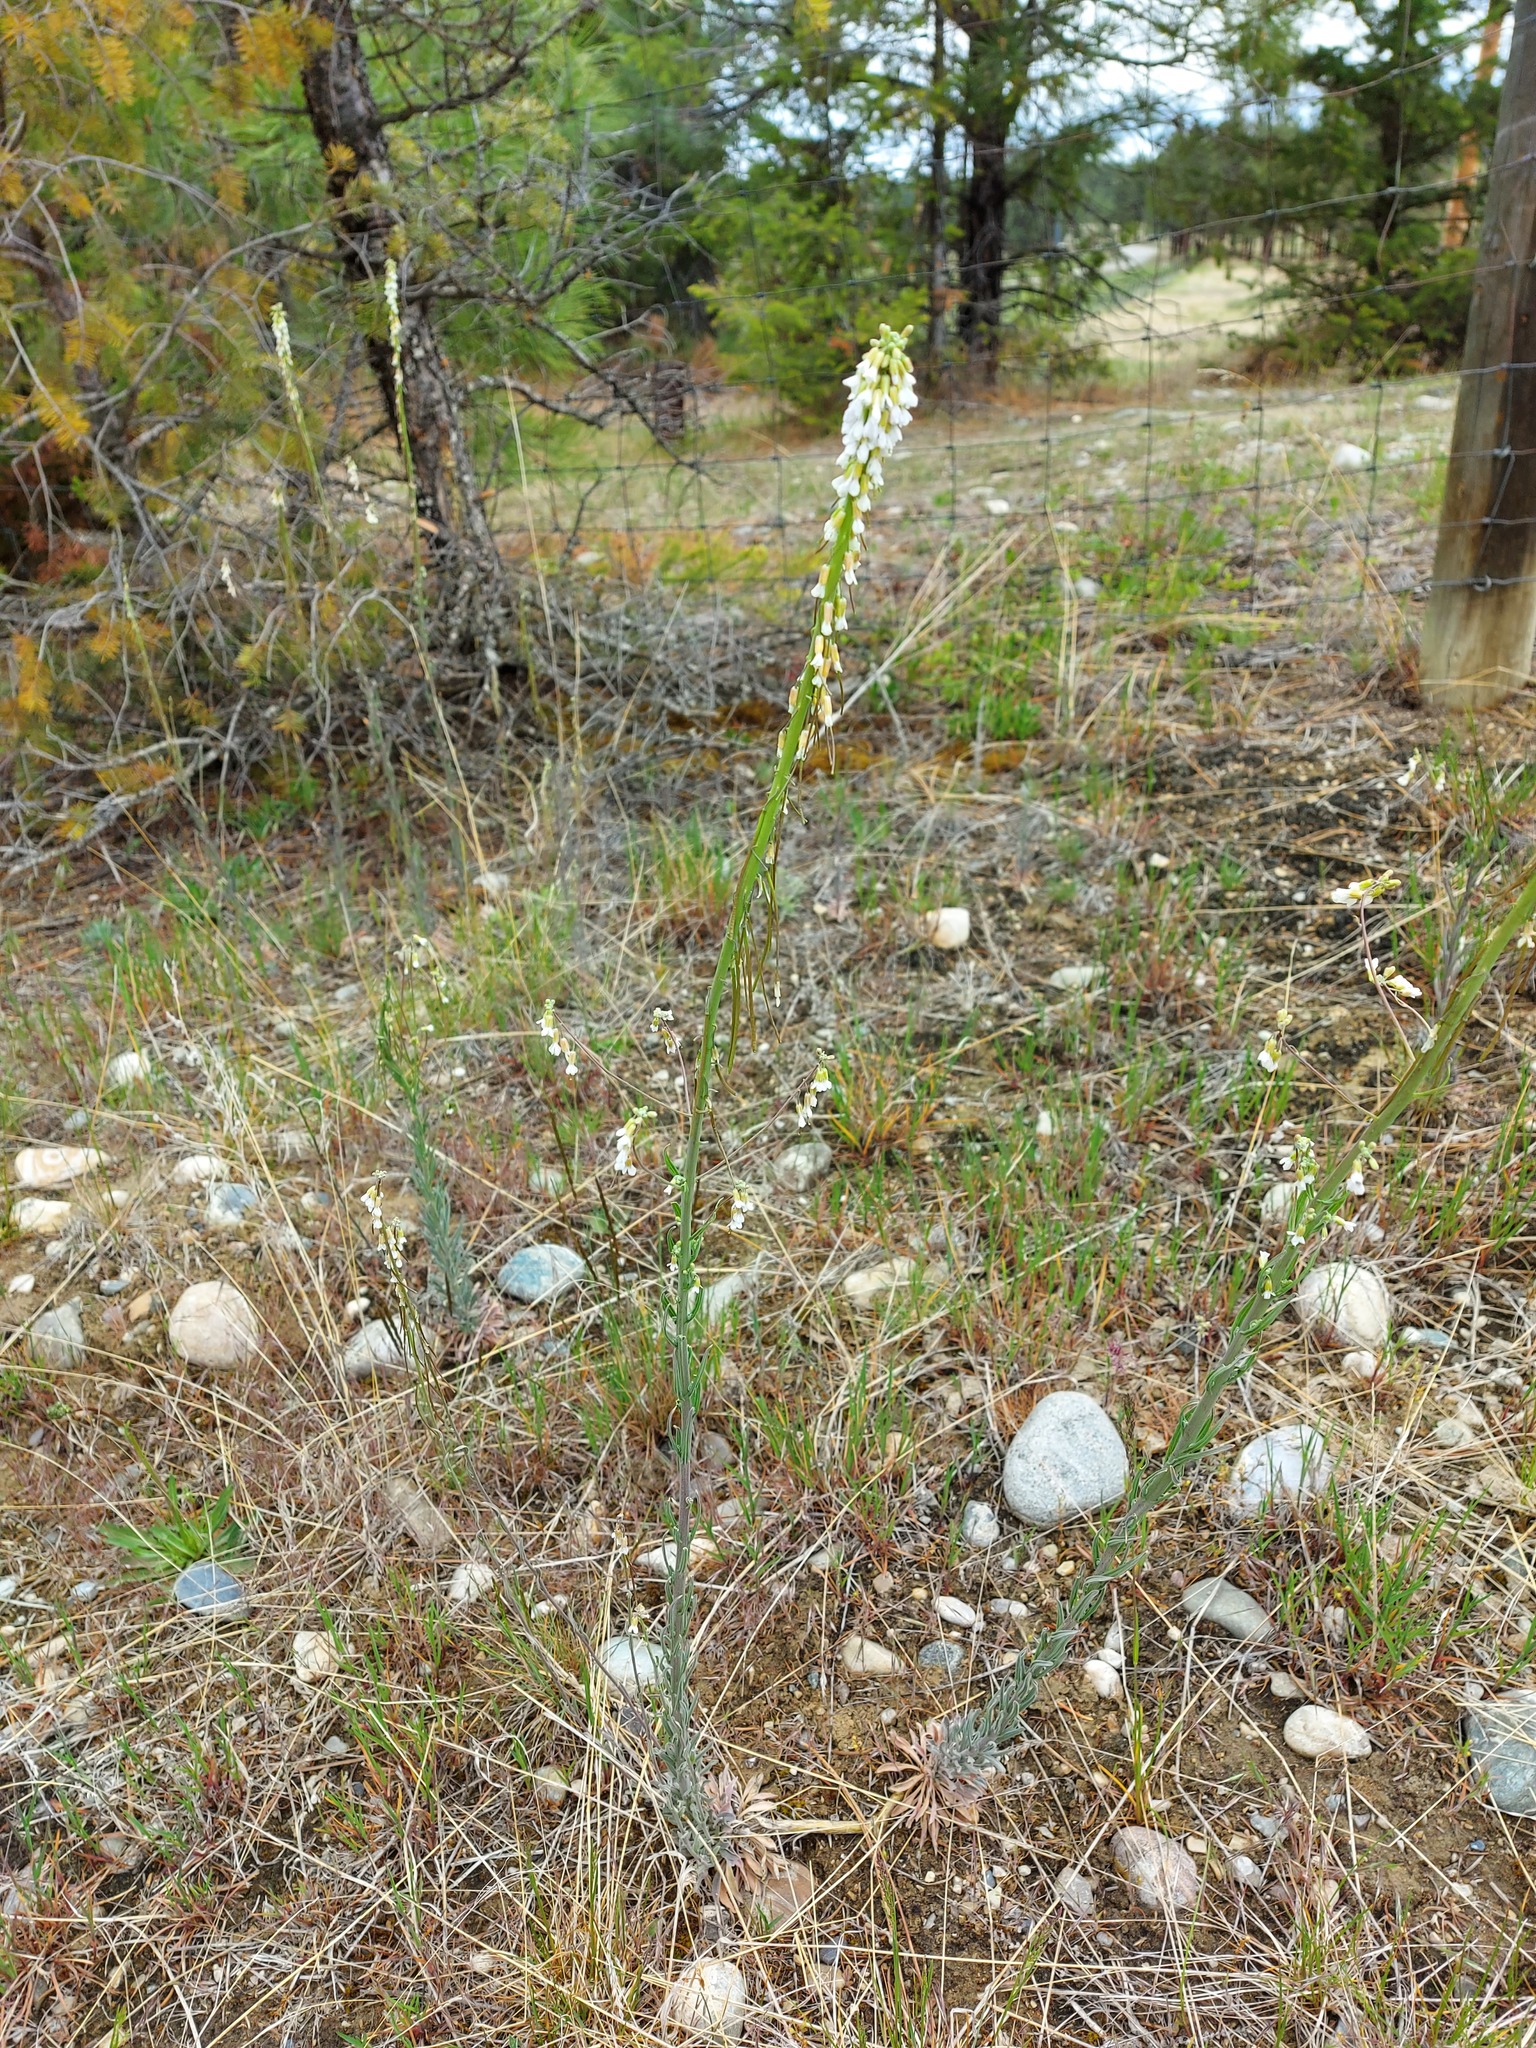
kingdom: Plantae
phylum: Tracheophyta
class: Magnoliopsida
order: Brassicales
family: Brassicaceae
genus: Boechera
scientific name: Boechera retrofracta
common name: Dangling suncress
